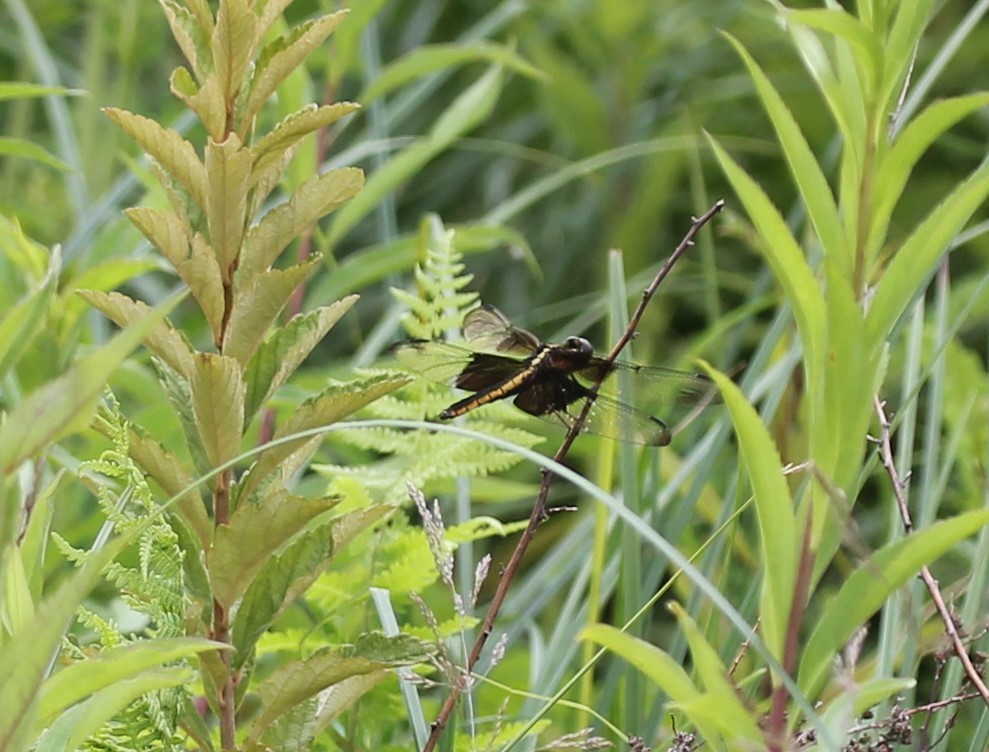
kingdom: Animalia
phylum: Arthropoda
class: Insecta
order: Odonata
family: Libellulidae
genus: Libellula
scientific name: Libellula luctuosa
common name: Widow skimmer
